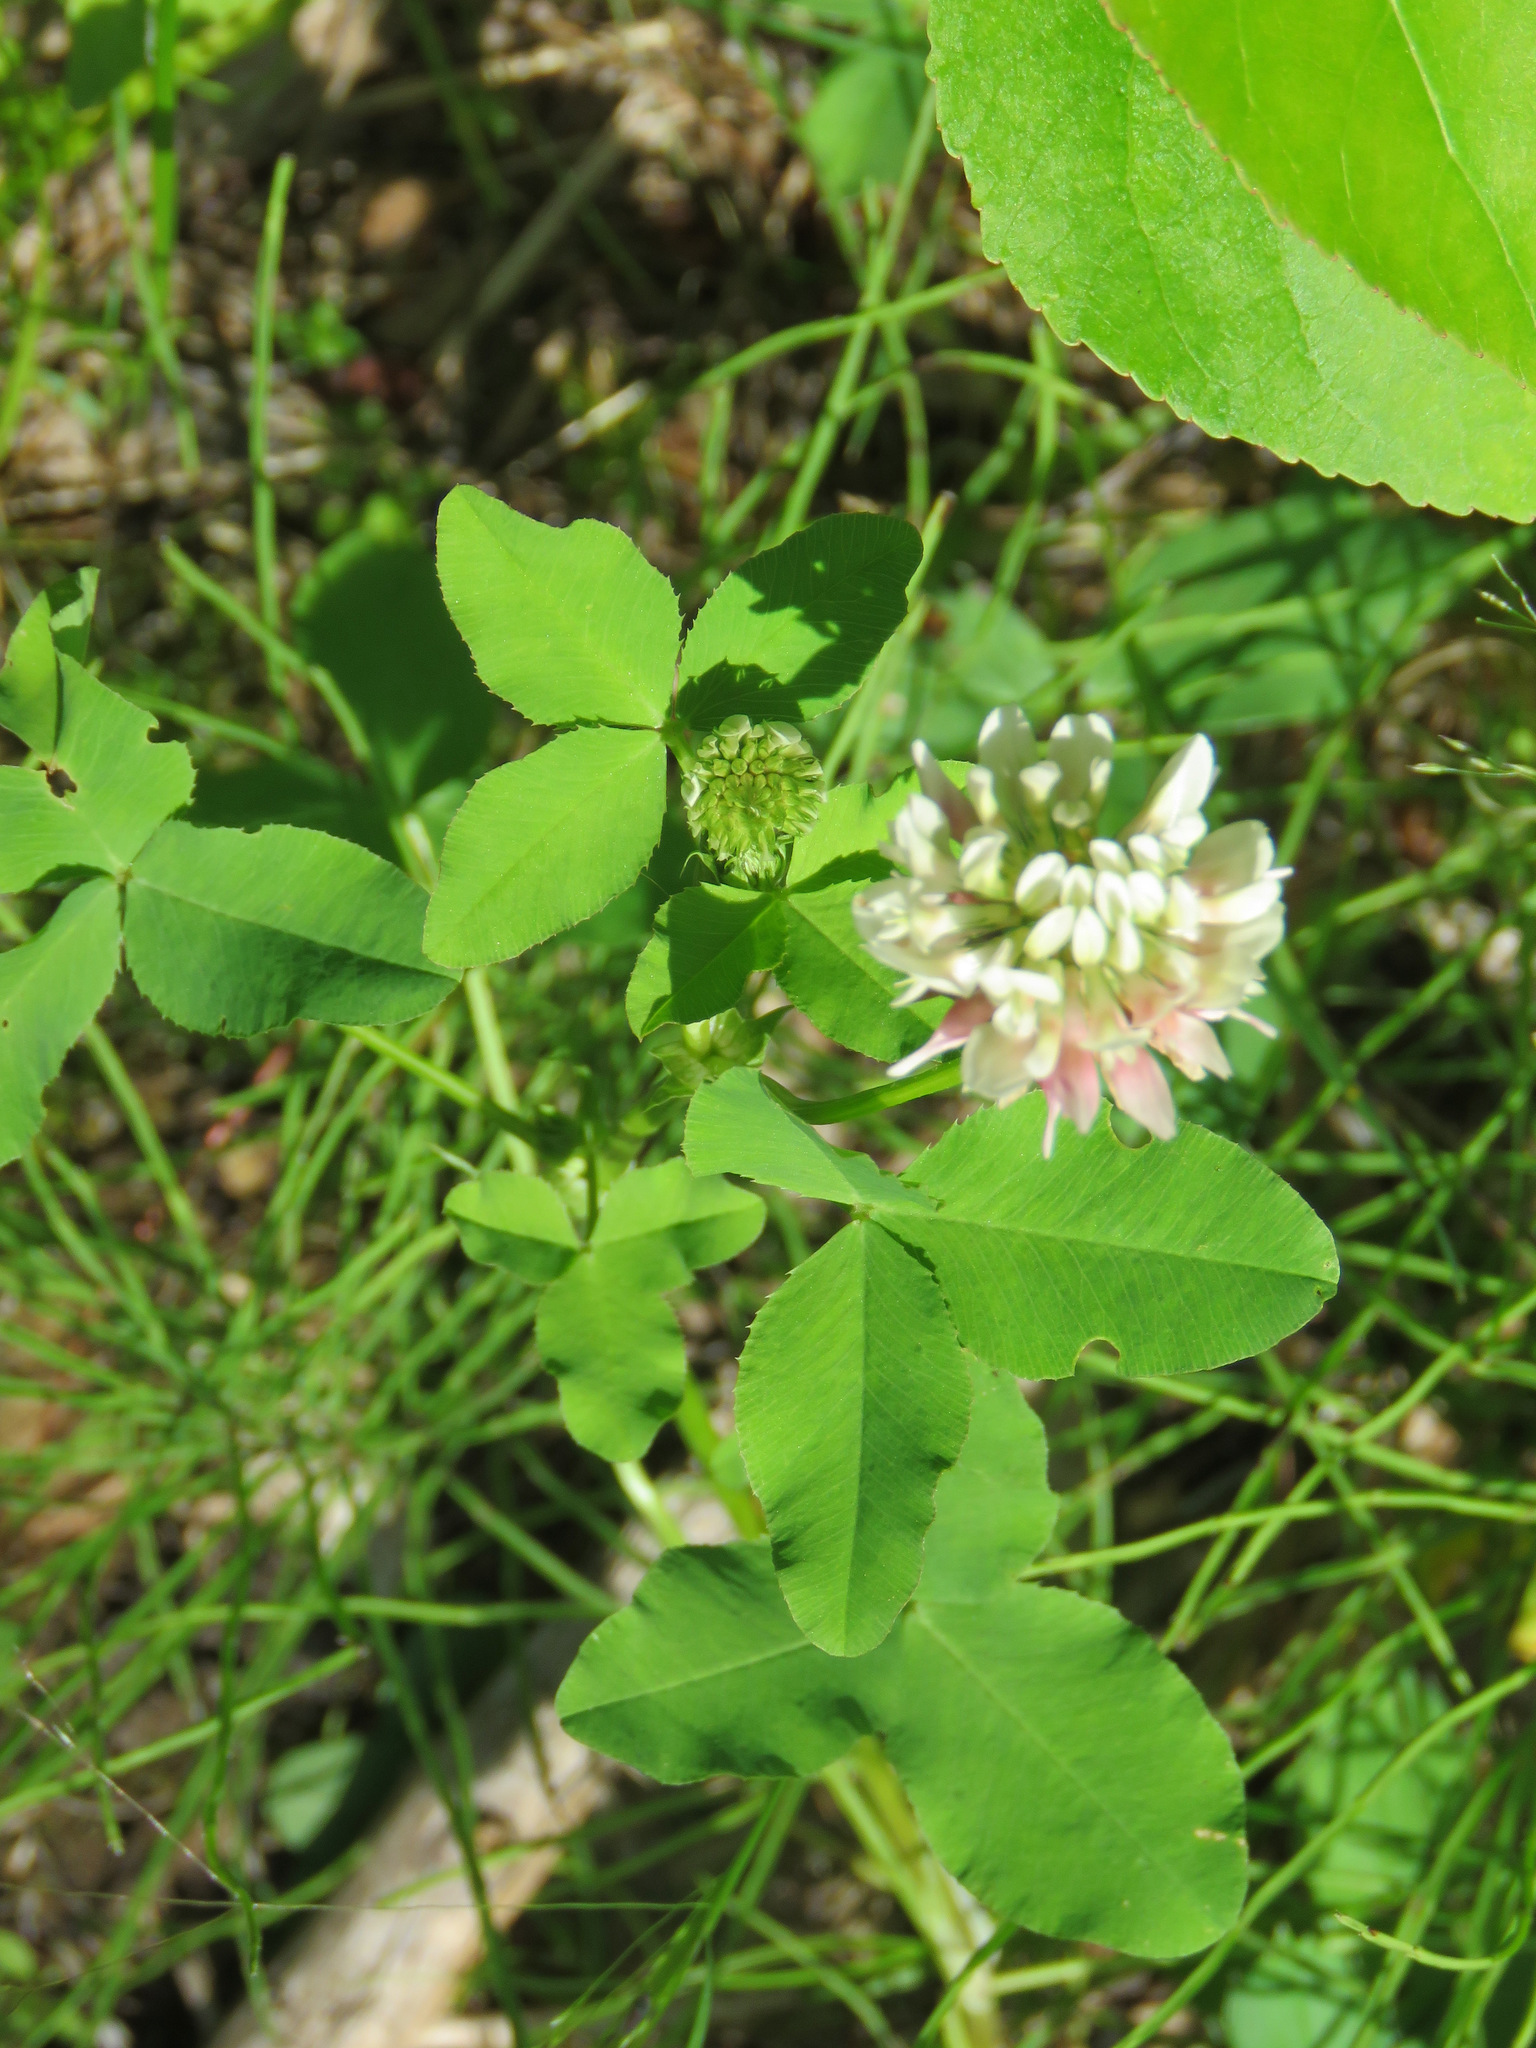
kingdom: Plantae
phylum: Tracheophyta
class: Magnoliopsida
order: Fabales
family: Fabaceae
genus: Trifolium
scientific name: Trifolium hybridum
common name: Alsike clover
